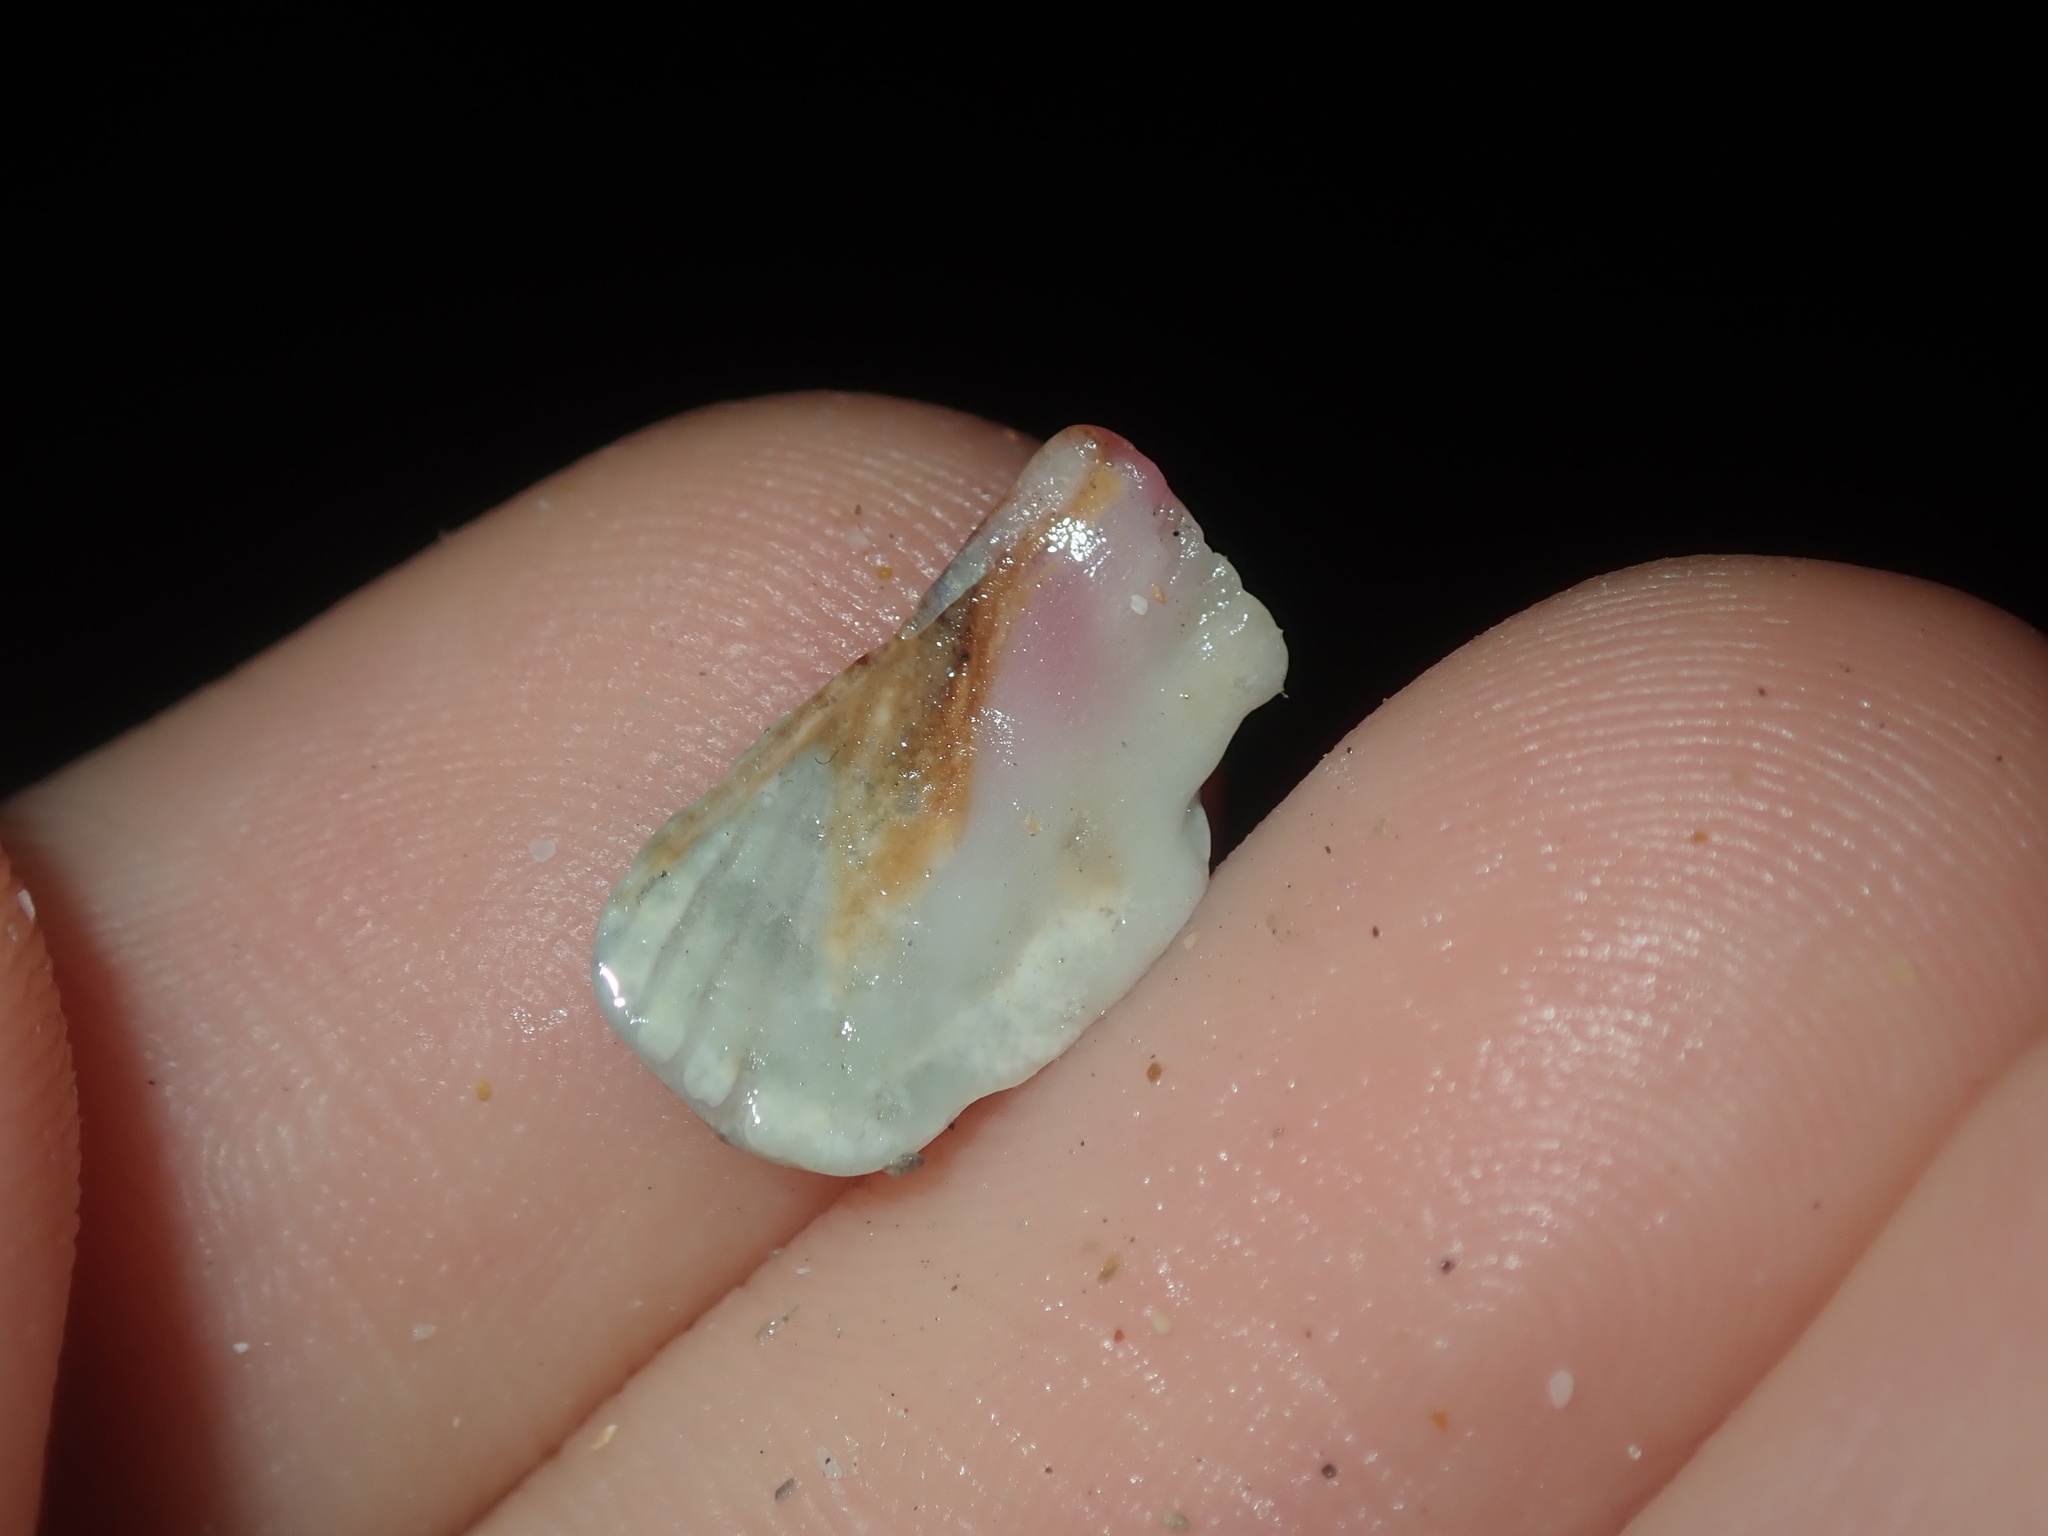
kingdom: Animalia
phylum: Mollusca
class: Polyplacophora
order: Chitonida
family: Ischnochitonidae
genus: Ischnochiton
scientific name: Ischnochiton australis
